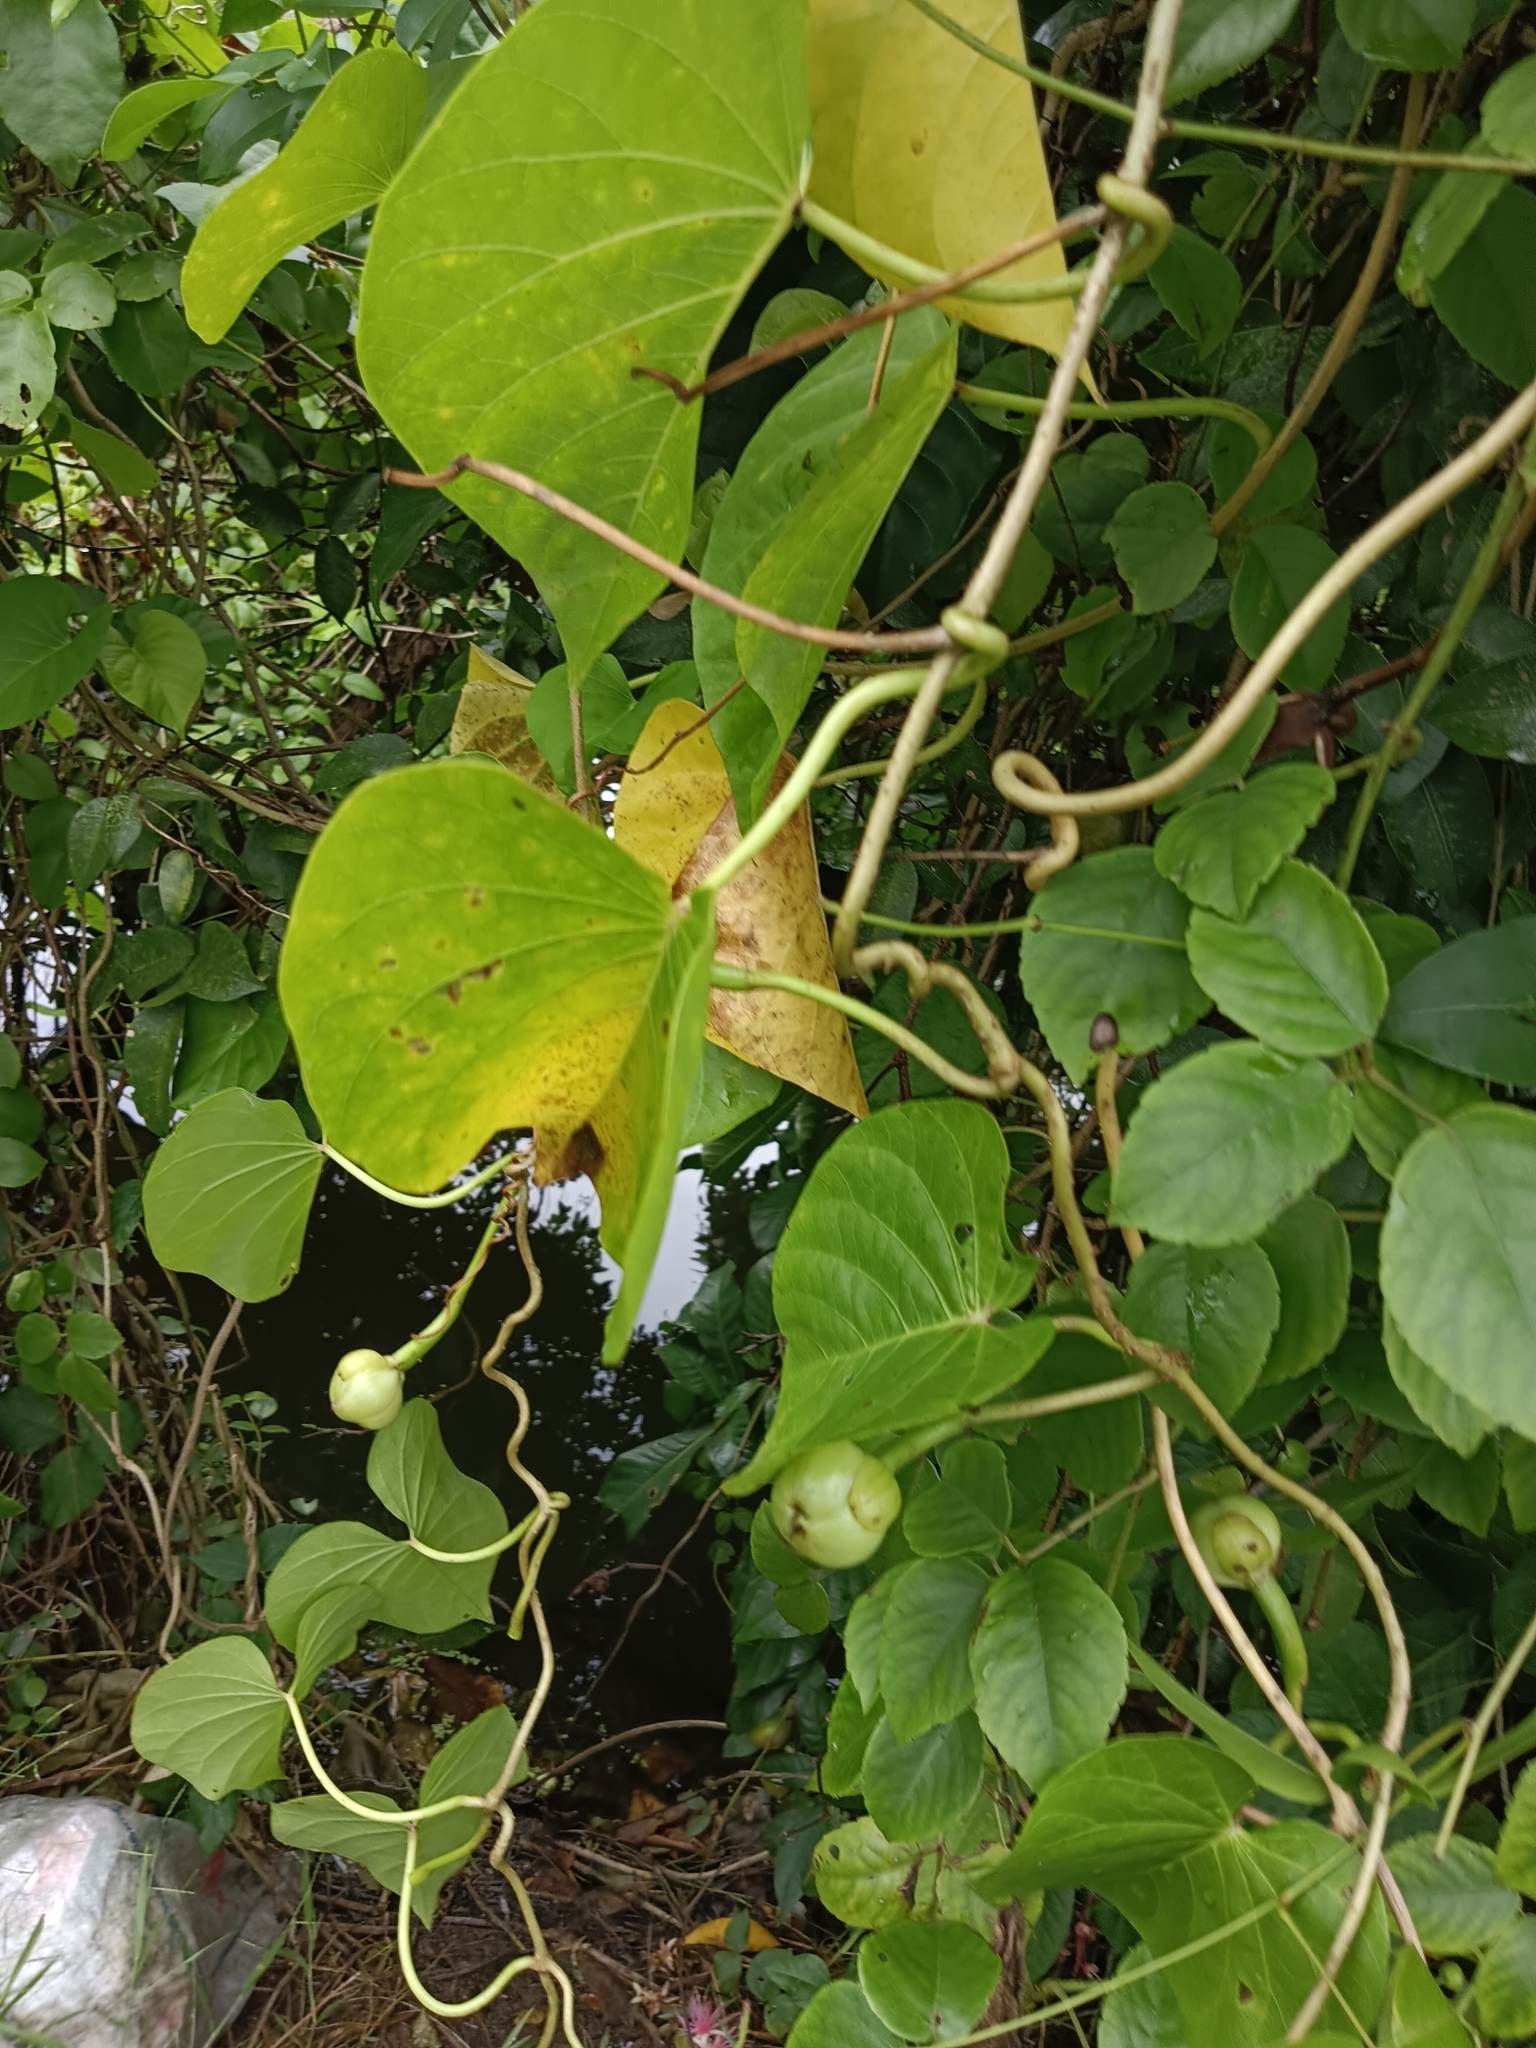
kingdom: Plantae
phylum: Tracheophyta
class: Magnoliopsida
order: Solanales
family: Convolvulaceae
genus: Ipomoea
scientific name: Ipomoea violacea
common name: Beach moonflower
